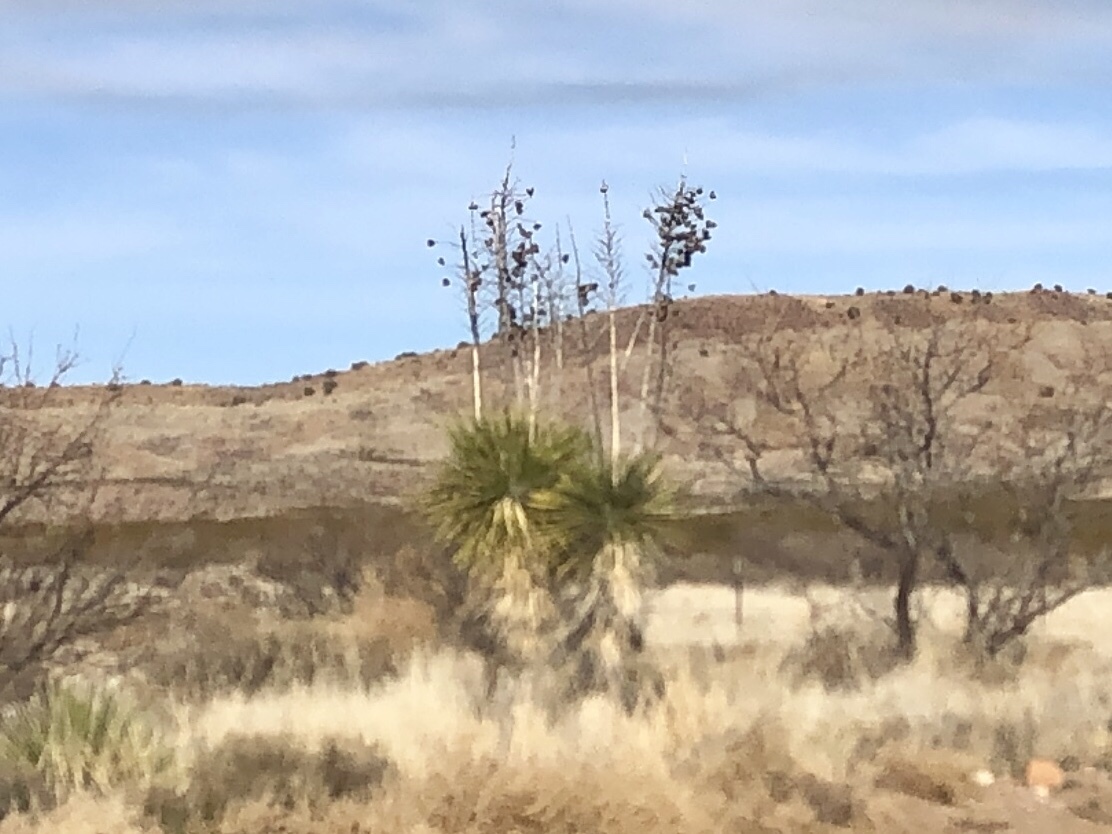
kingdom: Plantae
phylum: Tracheophyta
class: Liliopsida
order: Asparagales
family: Asparagaceae
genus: Yucca
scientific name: Yucca elata
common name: Palmella
